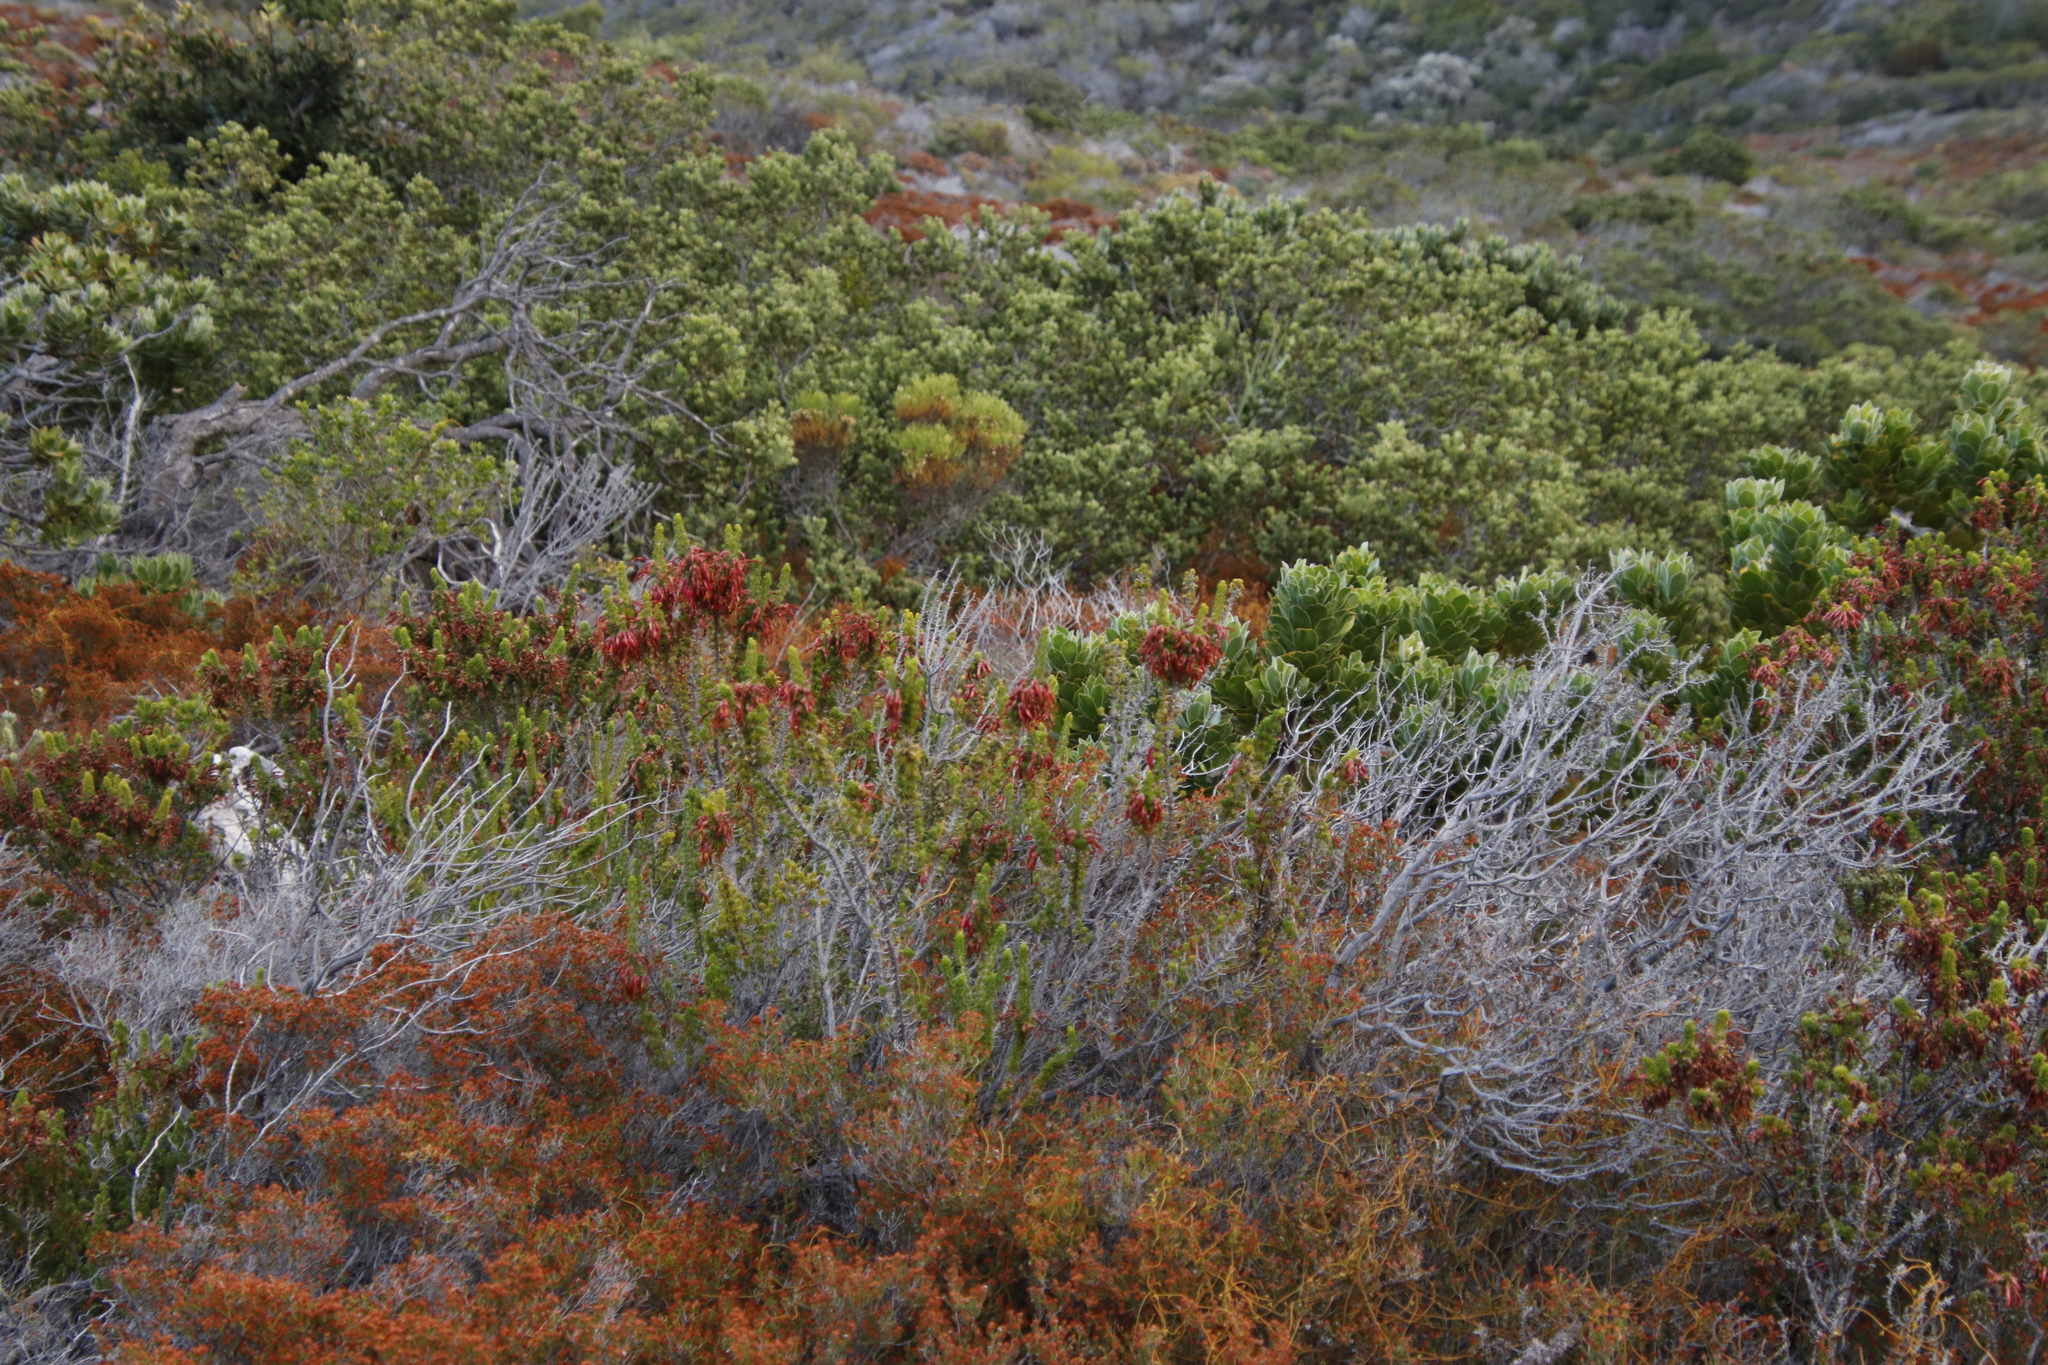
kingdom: Plantae
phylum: Tracheophyta
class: Magnoliopsida
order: Ericales
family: Ericaceae
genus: Erica
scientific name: Erica coccinea
